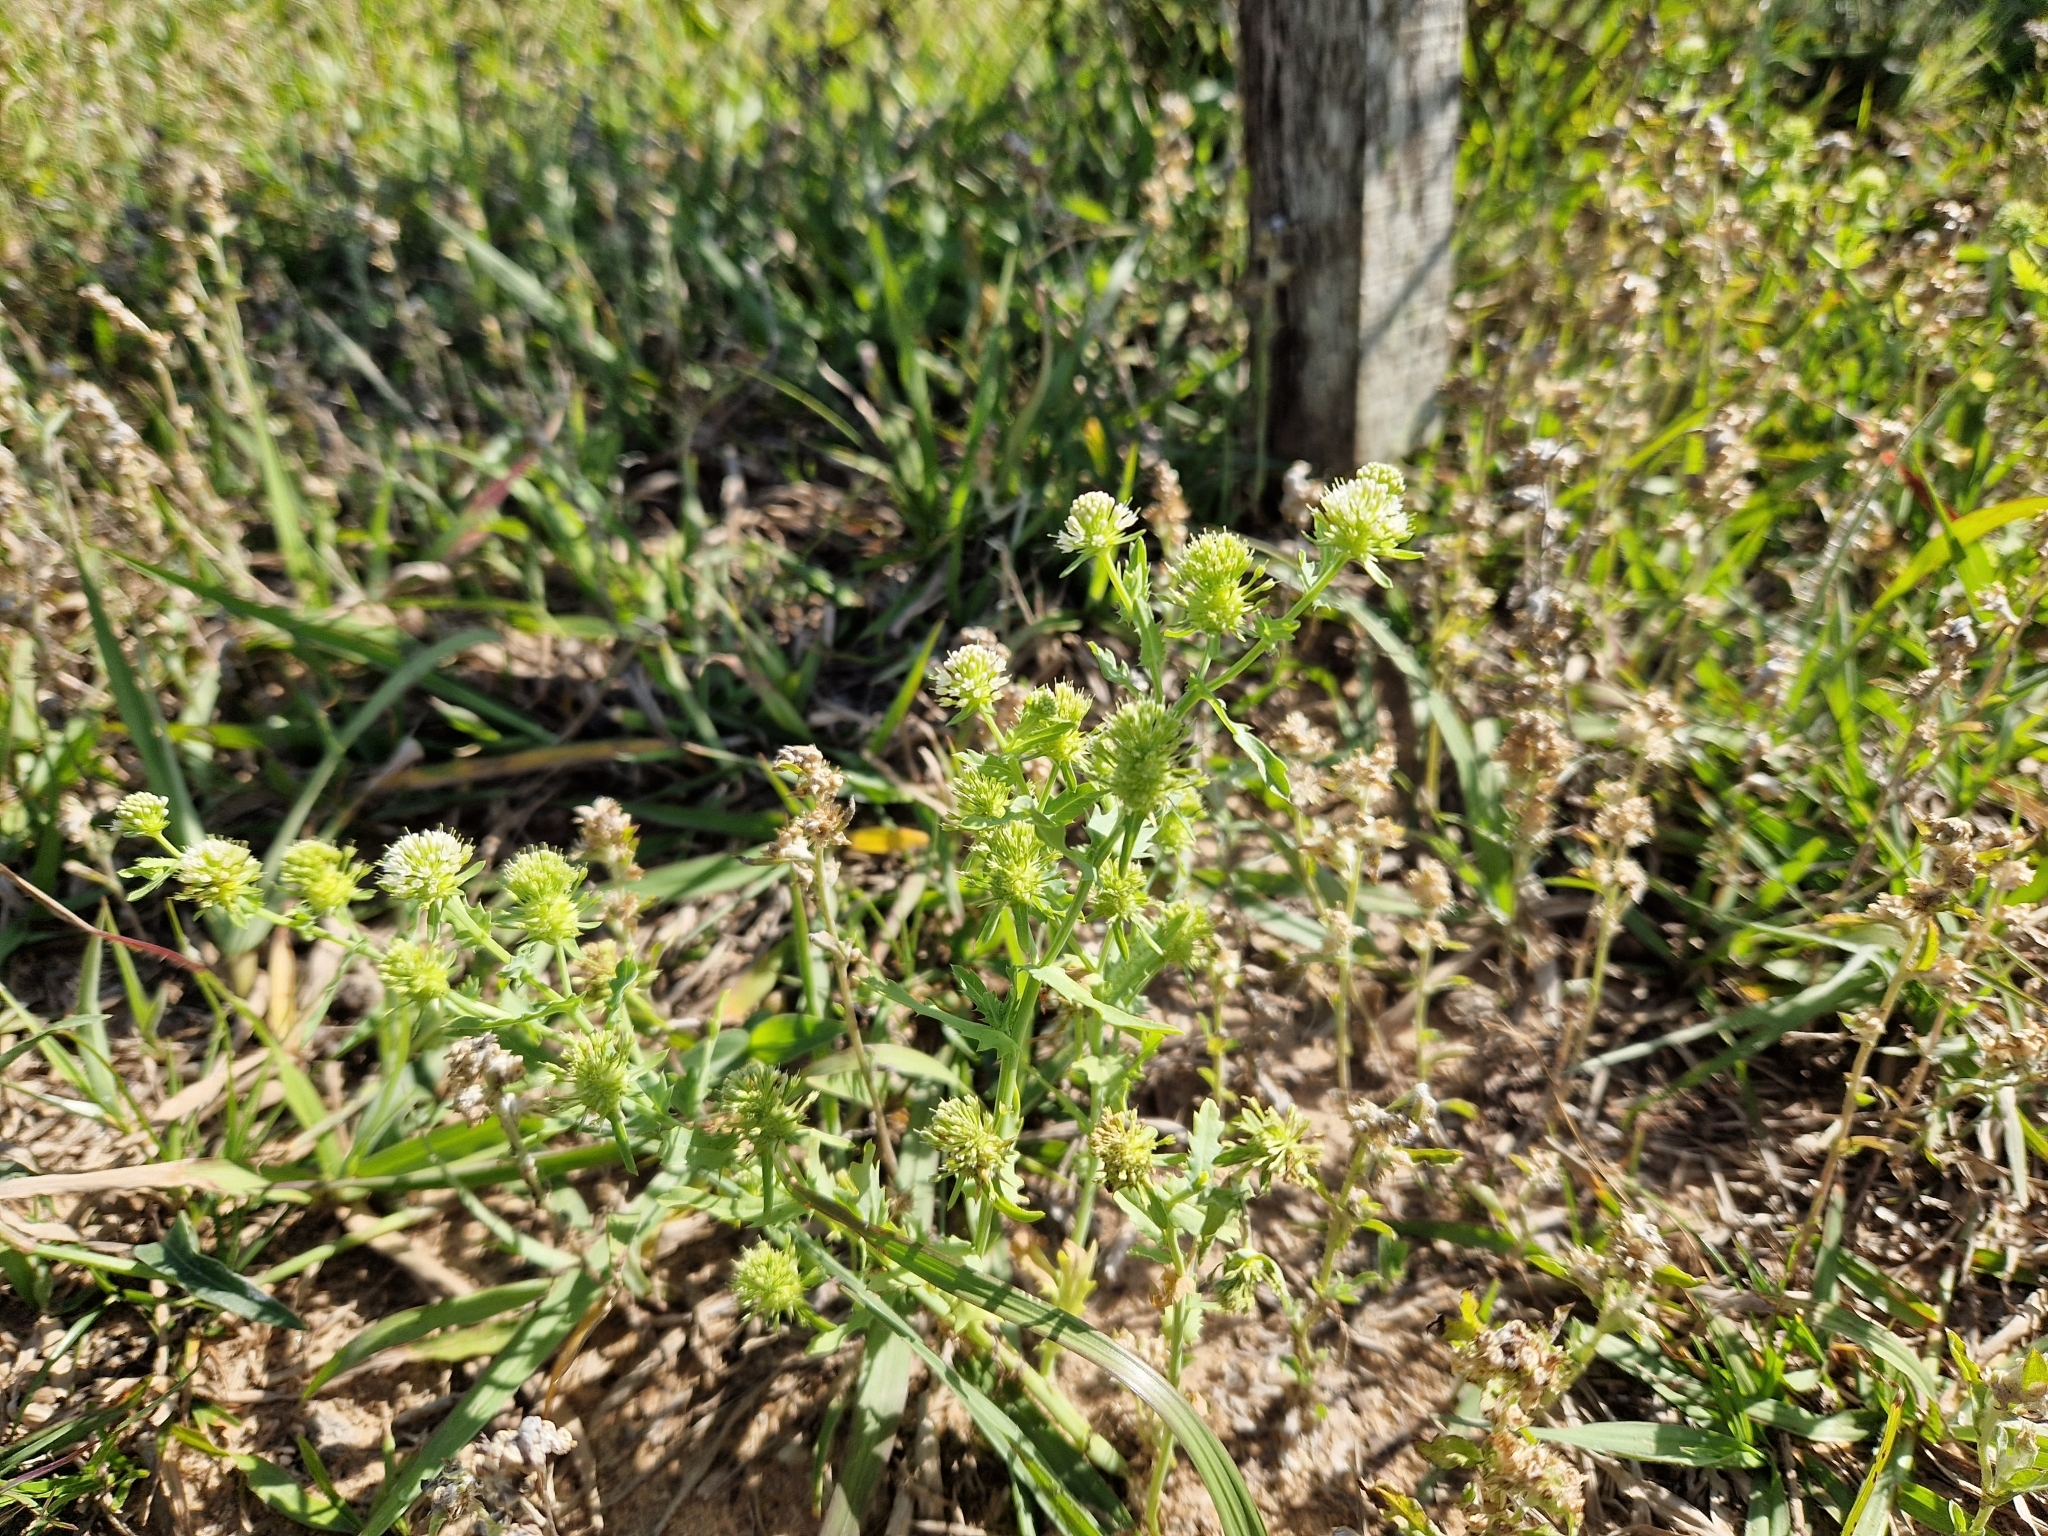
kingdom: Plantae
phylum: Tracheophyta
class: Magnoliopsida
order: Asterales
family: Calyceraceae
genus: Acicarpha
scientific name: Acicarpha tribuloides
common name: Madam gorgon
